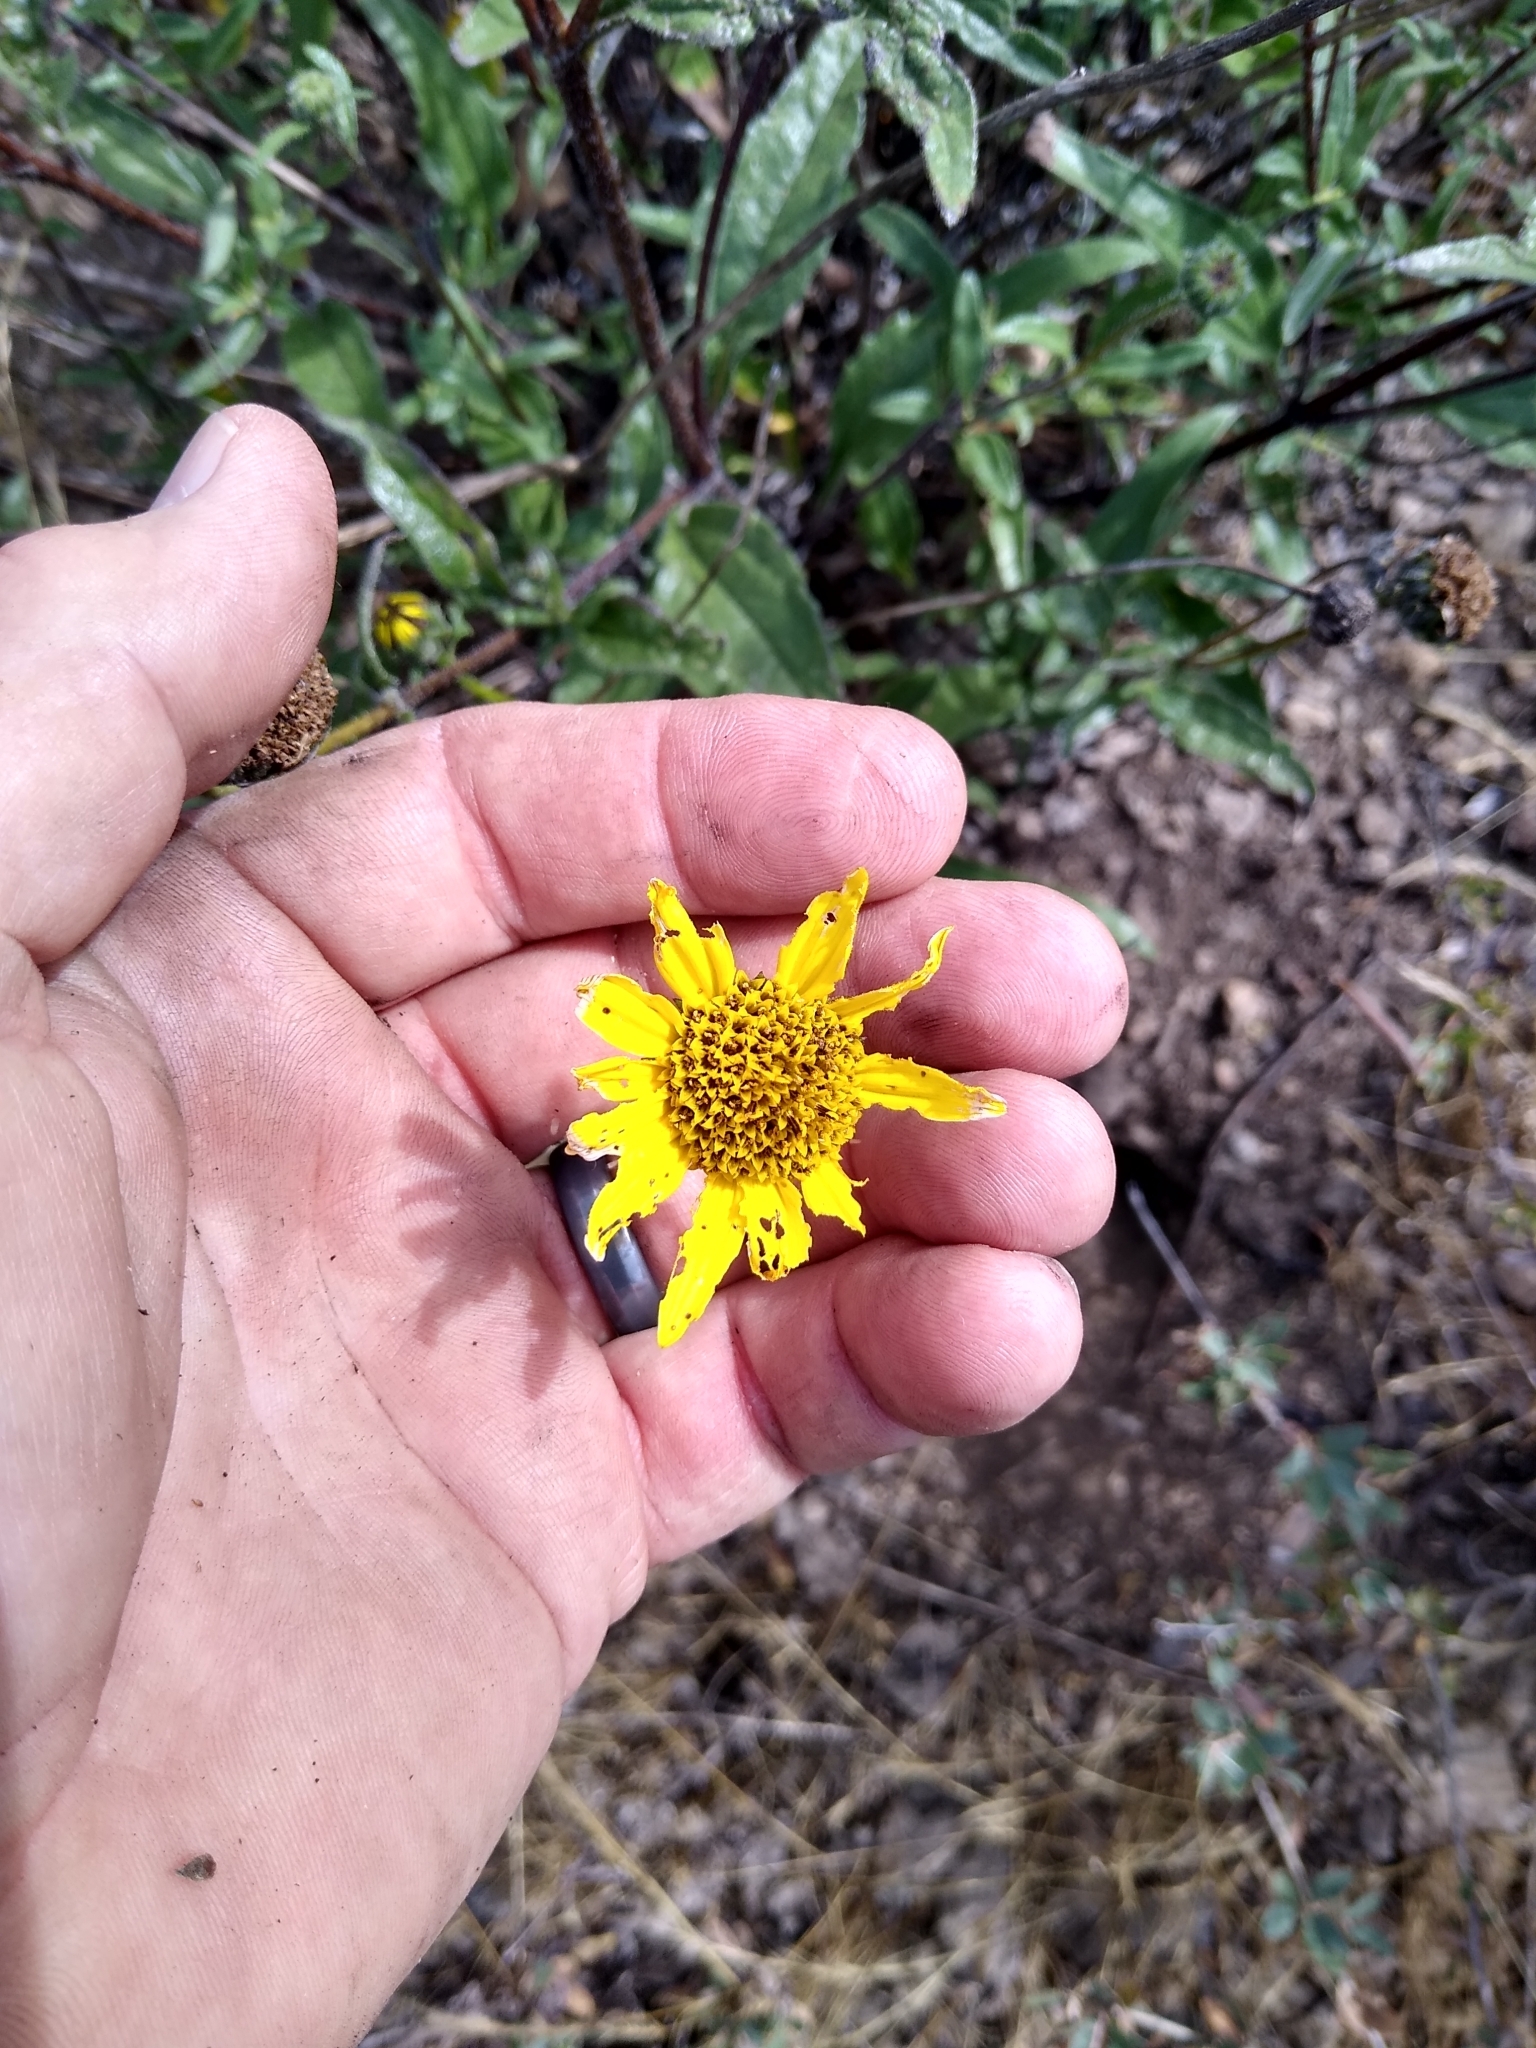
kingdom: Plantae
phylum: Tracheophyta
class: Magnoliopsida
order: Asterales
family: Asteraceae
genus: Helianthus
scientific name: Helianthus gracilentus
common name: Slender sunflower
